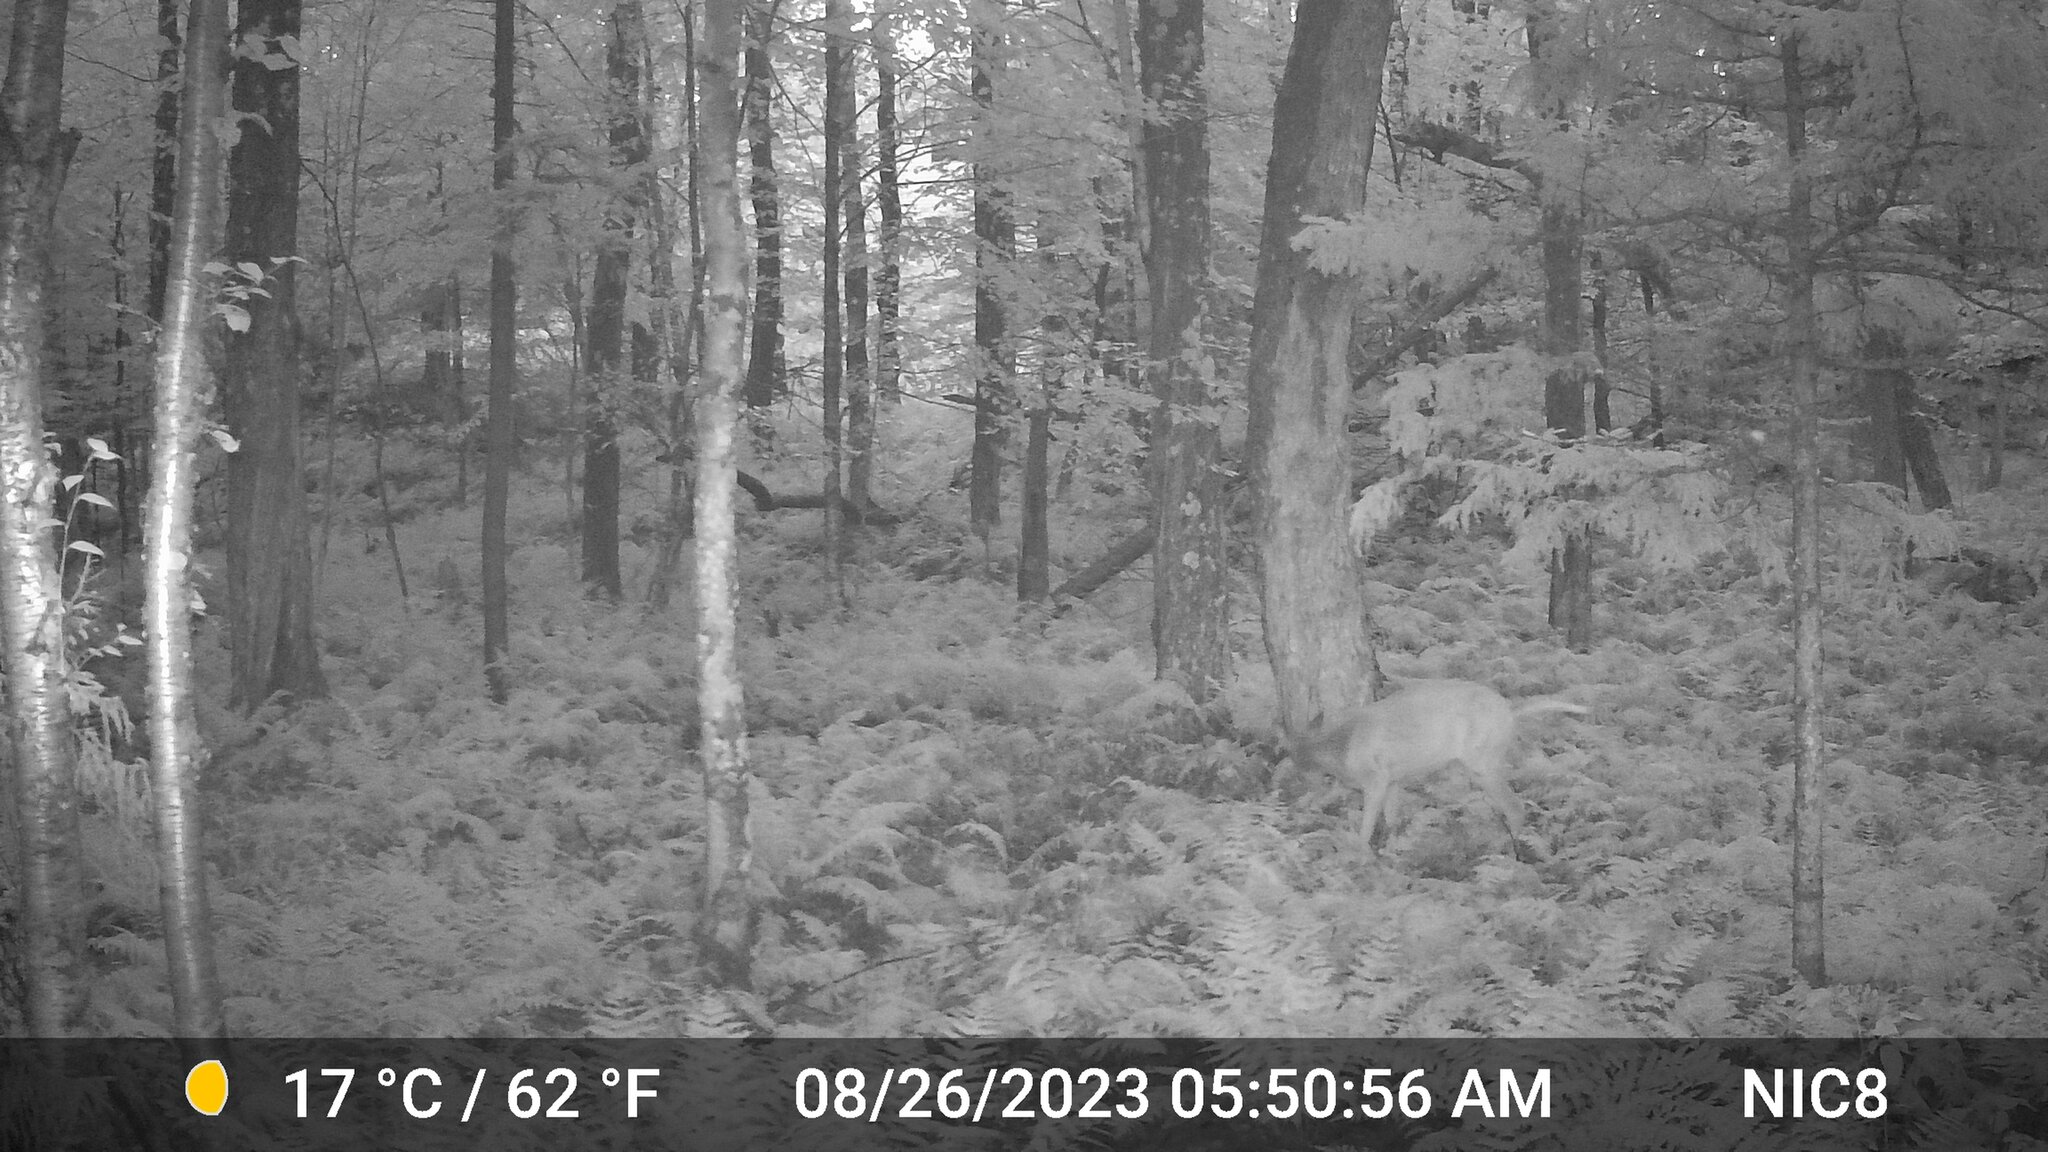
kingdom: Animalia
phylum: Chordata
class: Mammalia
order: Artiodactyla
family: Cervidae
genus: Odocoileus
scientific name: Odocoileus virginianus
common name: White-tailed deer
